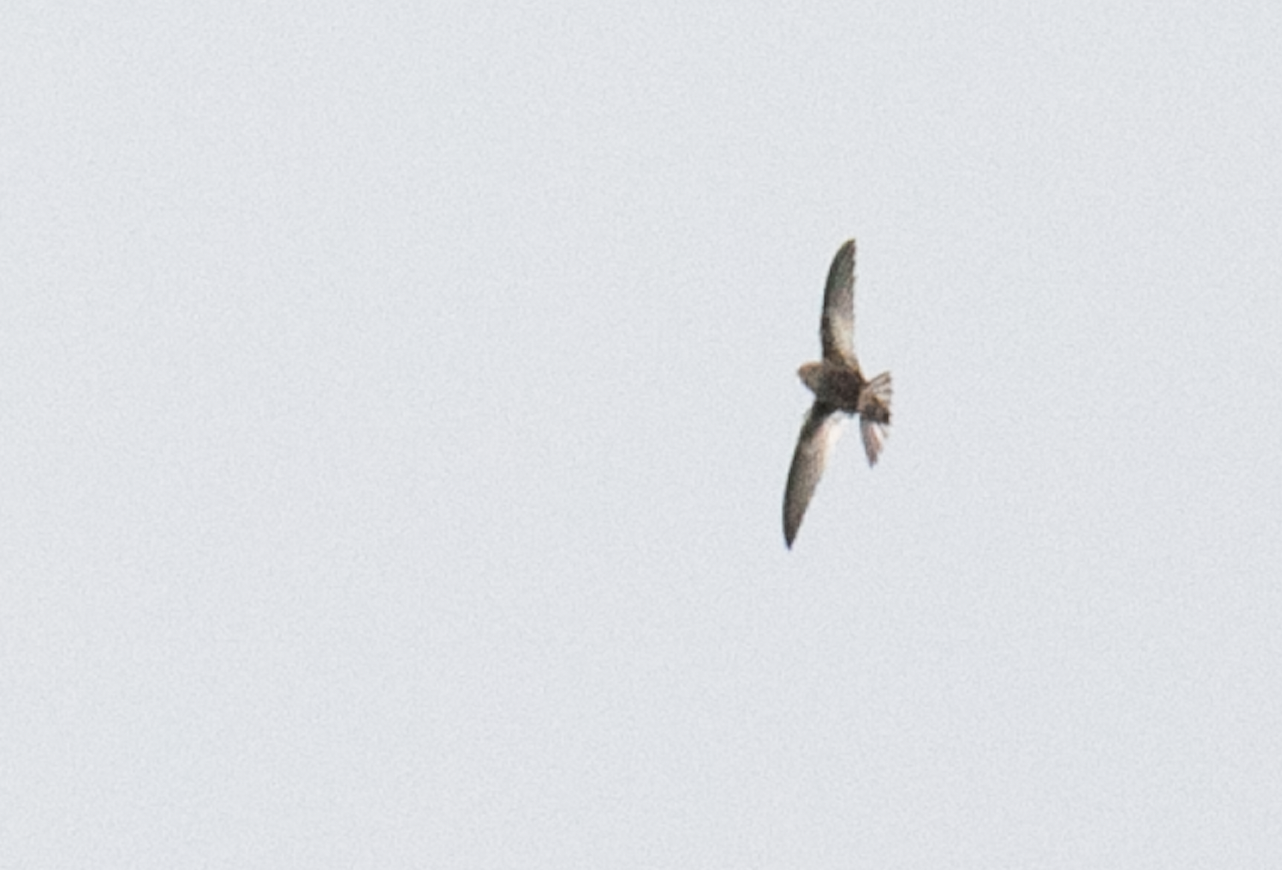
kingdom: Animalia
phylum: Chordata
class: Aves
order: Apodiformes
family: Apodidae
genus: Apus
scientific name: Apus apus
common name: Common swift
